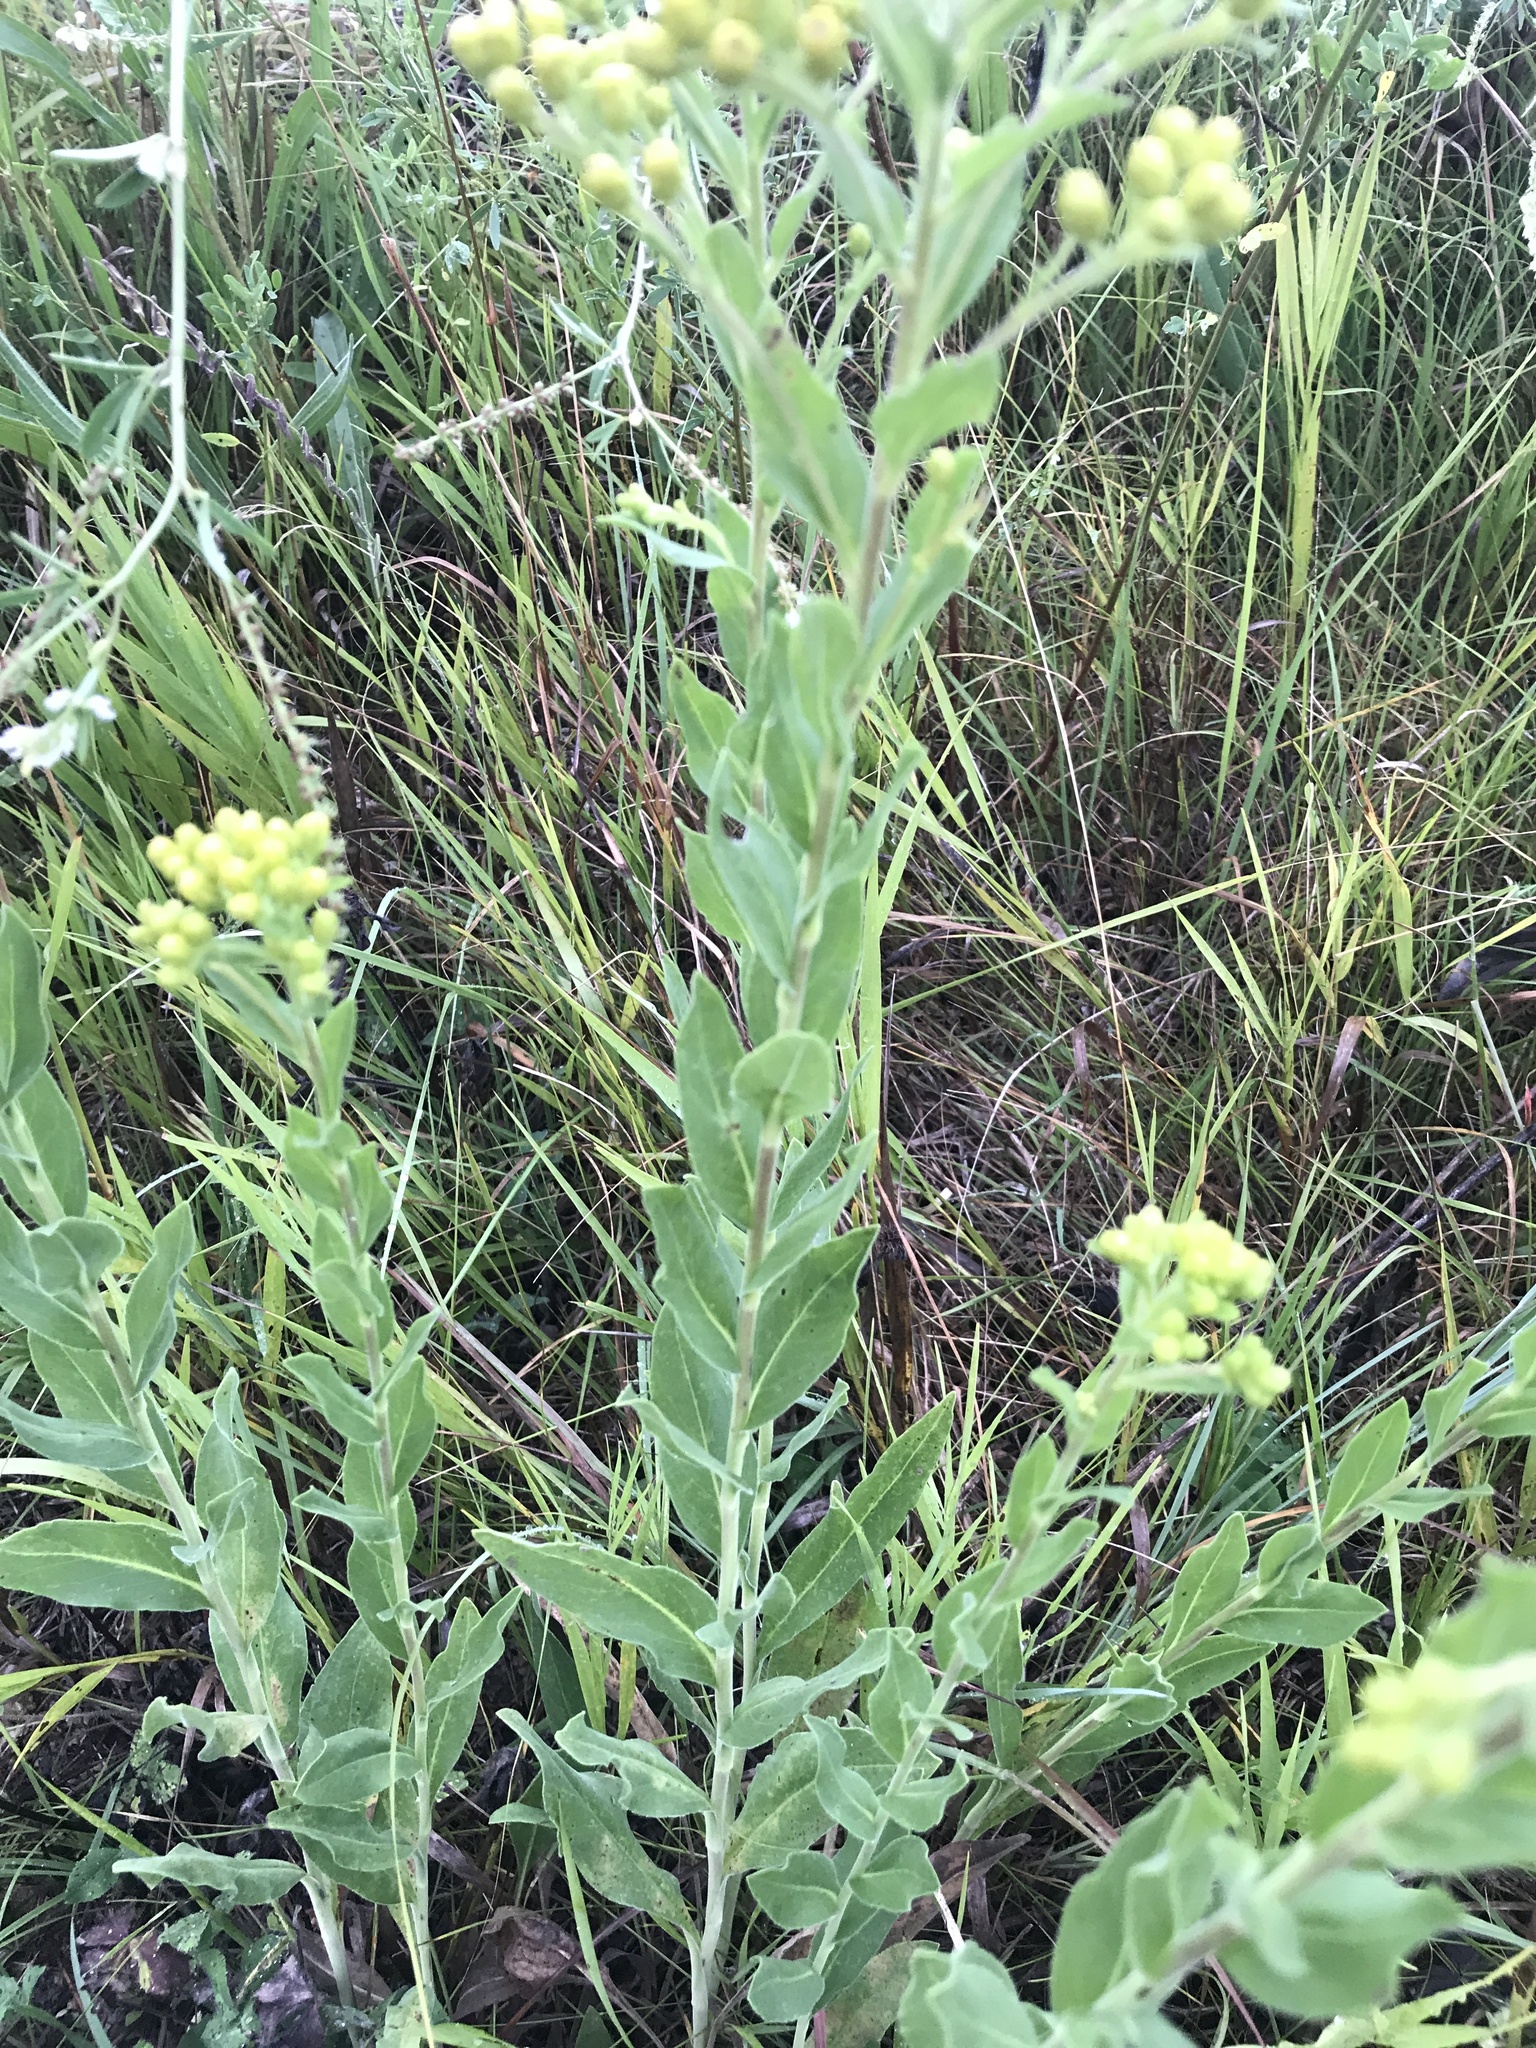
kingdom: Plantae
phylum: Tracheophyta
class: Magnoliopsida
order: Asterales
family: Asteraceae
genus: Solidago
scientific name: Solidago rigida
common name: Rigid goldenrod
